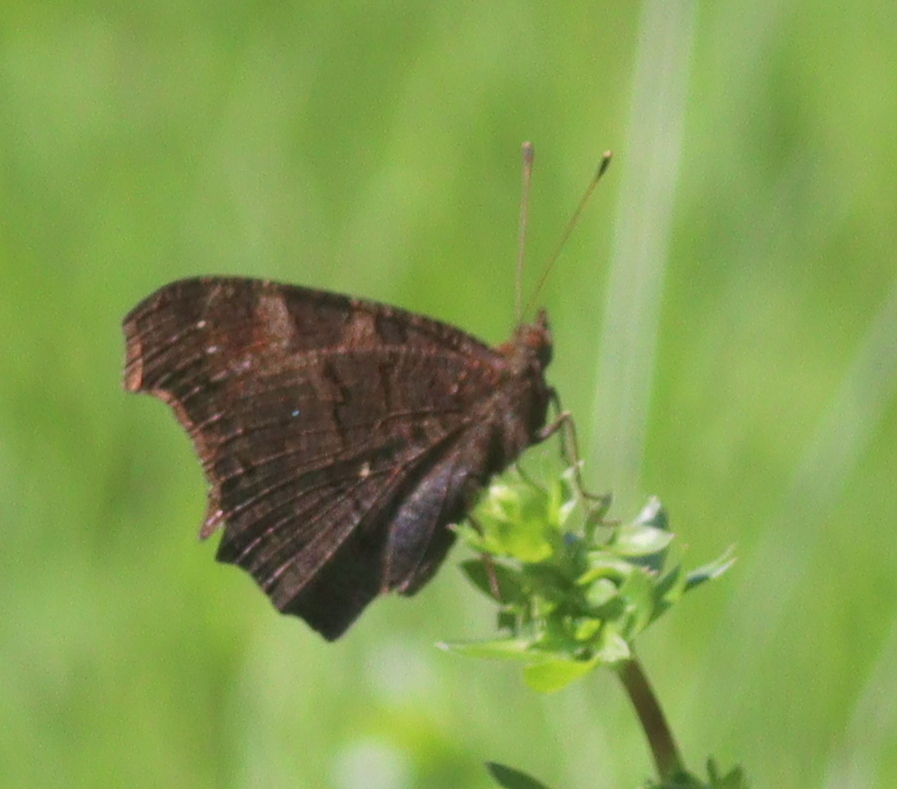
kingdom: Animalia
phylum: Arthropoda
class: Insecta
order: Lepidoptera
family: Nymphalidae
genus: Aglais
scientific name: Aglais io
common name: Peacock
